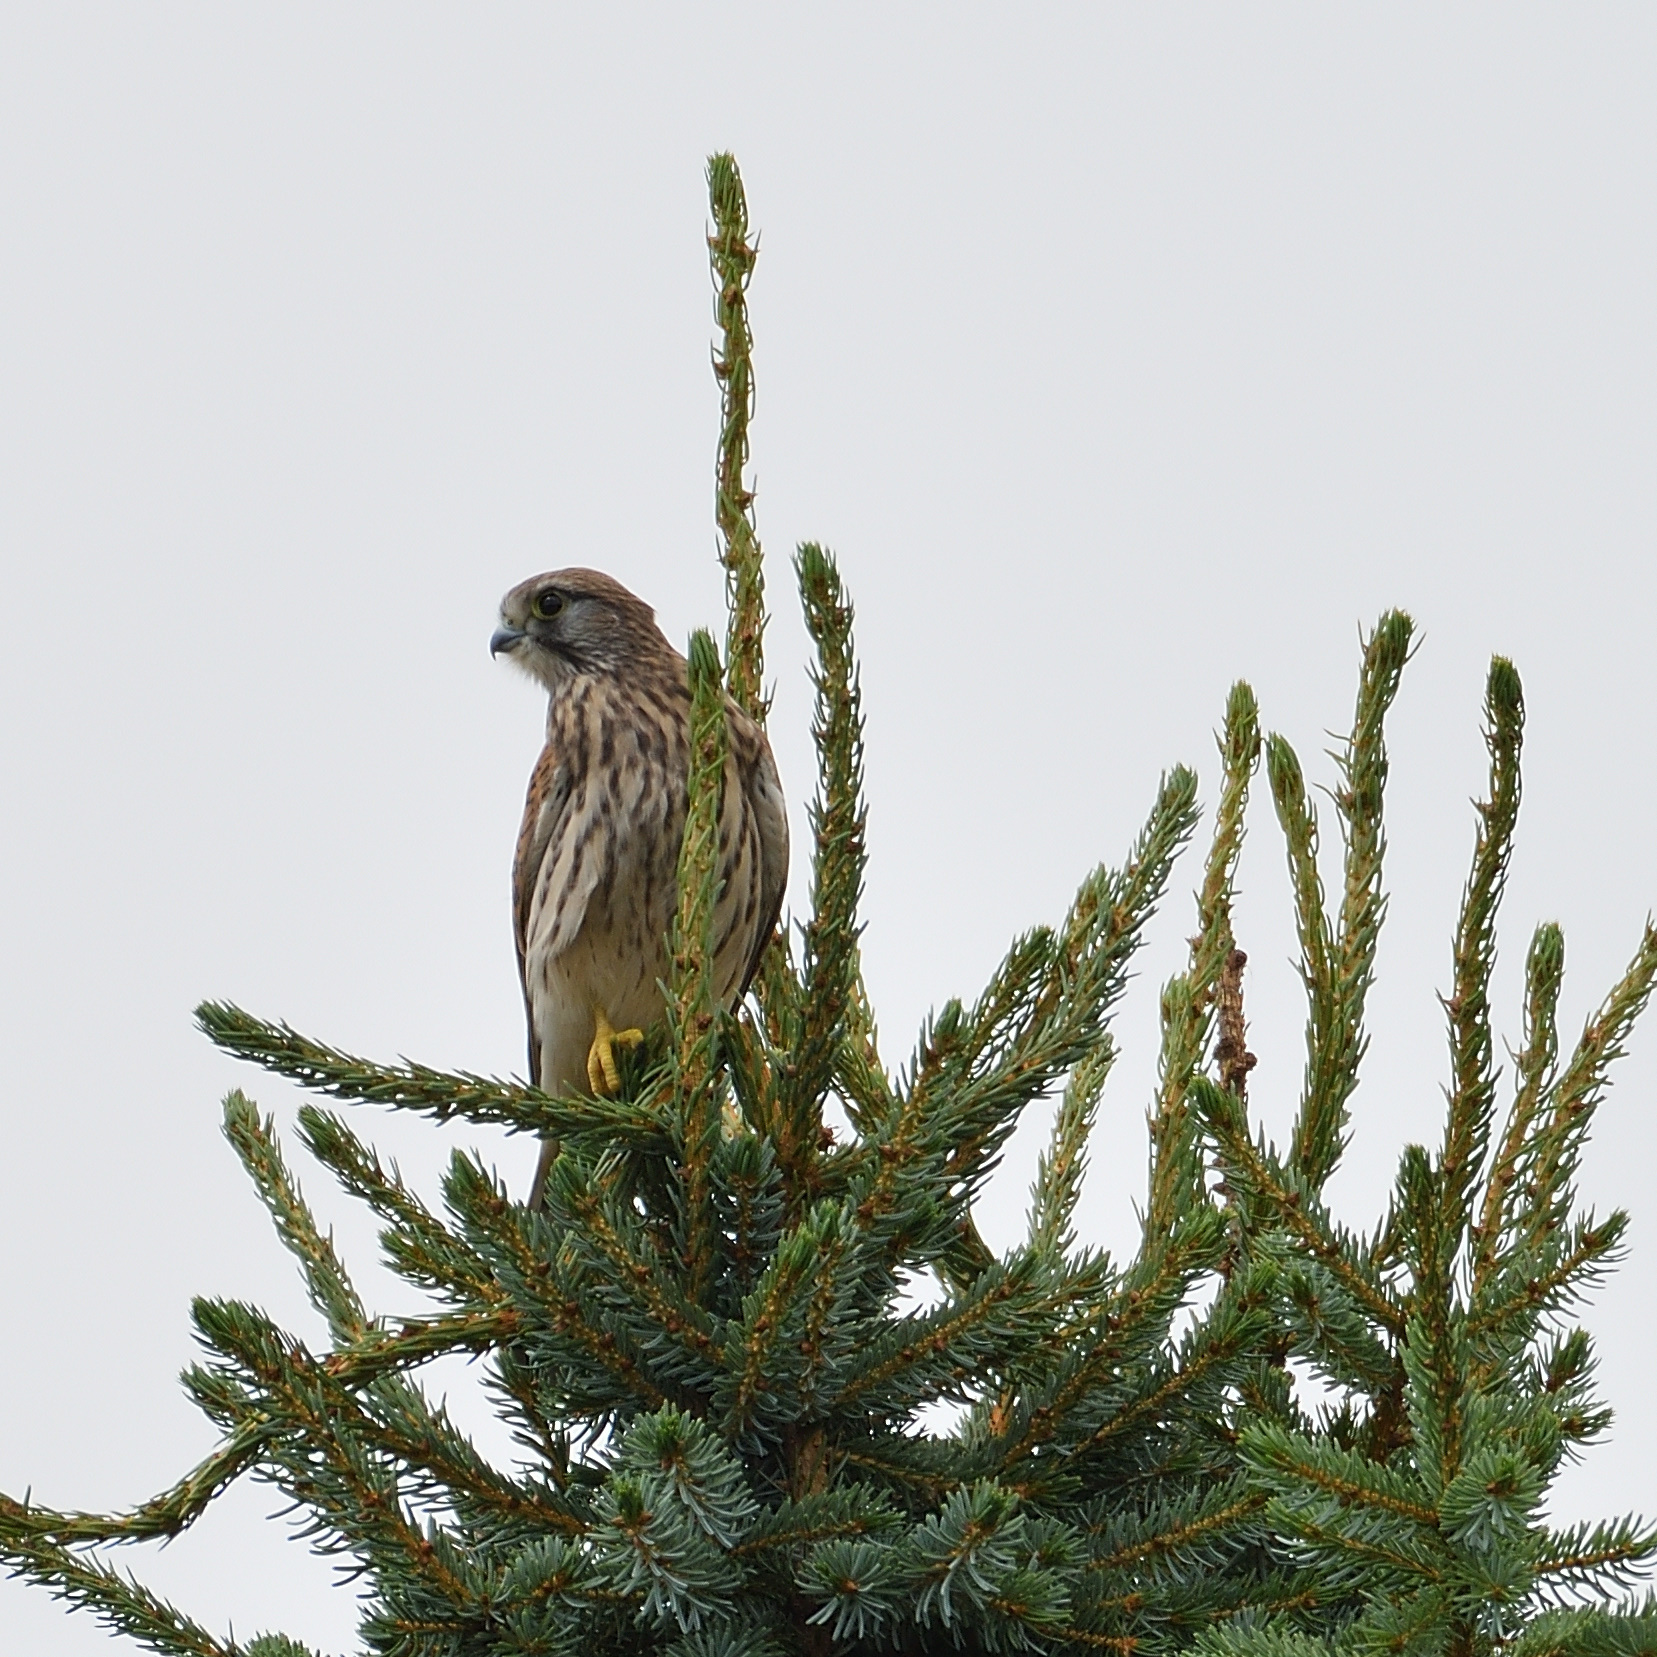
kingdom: Animalia
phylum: Chordata
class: Aves
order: Falconiformes
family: Falconidae
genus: Falco
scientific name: Falco tinnunculus
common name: Common kestrel
